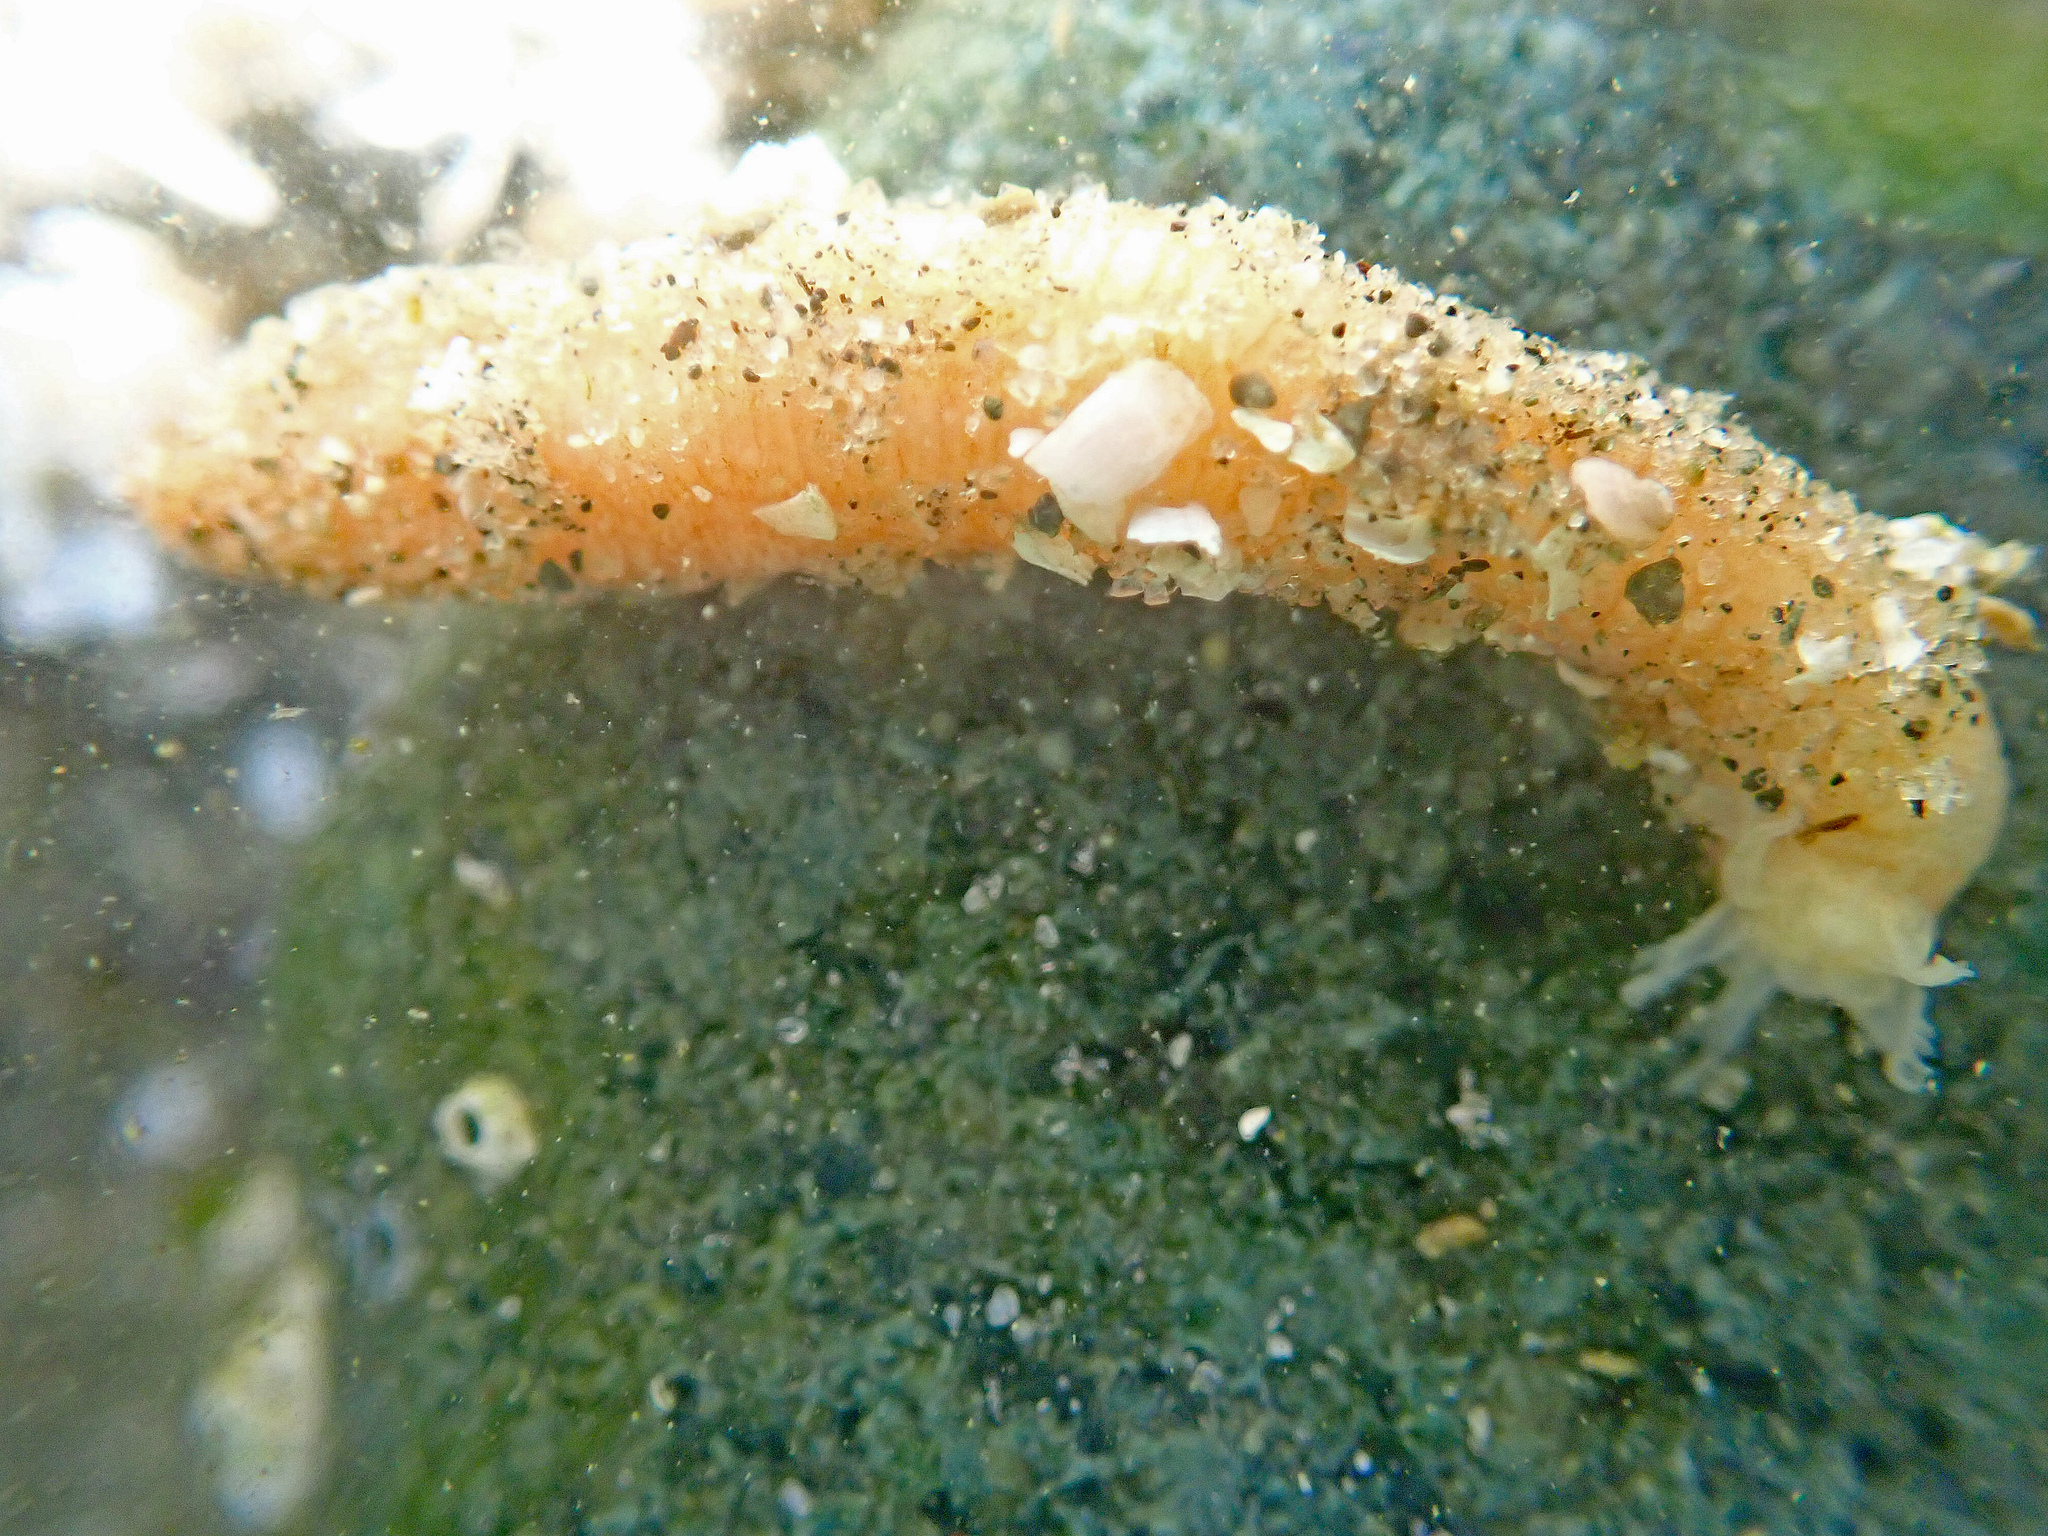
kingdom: Animalia
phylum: Echinodermata
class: Holothuroidea
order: Apodida
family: Synaptidae
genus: Leptosynapta
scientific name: Leptosynapta clarki
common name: Clark's footless sea cucumber
